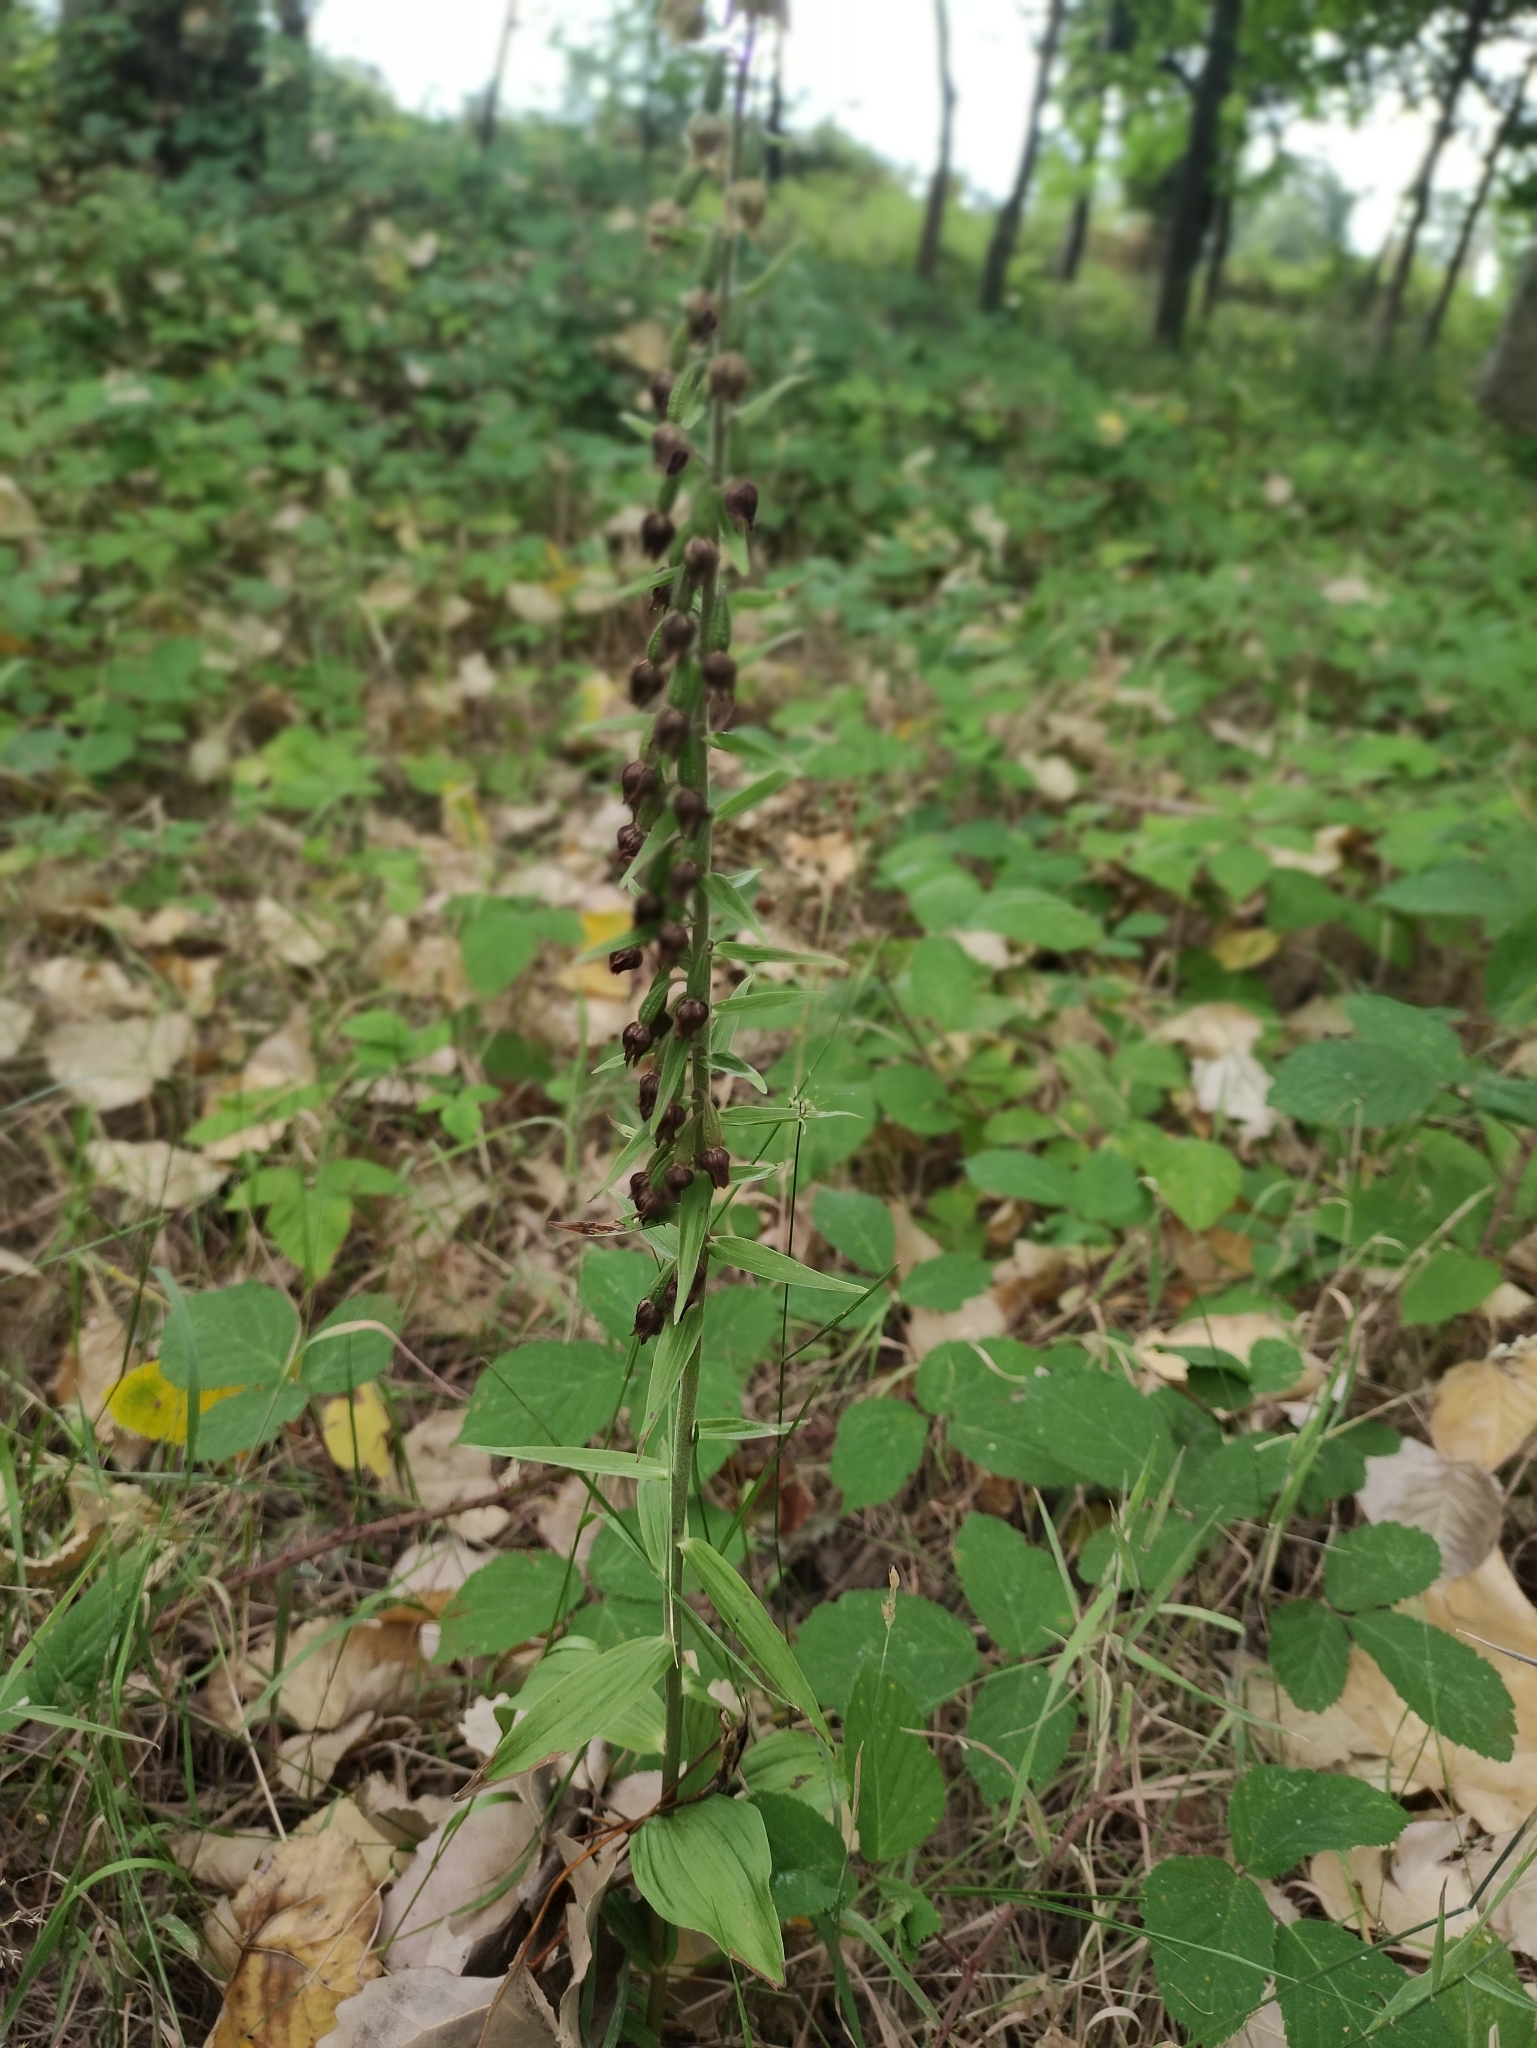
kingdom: Plantae
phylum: Tracheophyta
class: Liliopsida
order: Asparagales
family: Orchidaceae
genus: Epipactis
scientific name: Epipactis helleborine
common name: Broad-leaved helleborine
